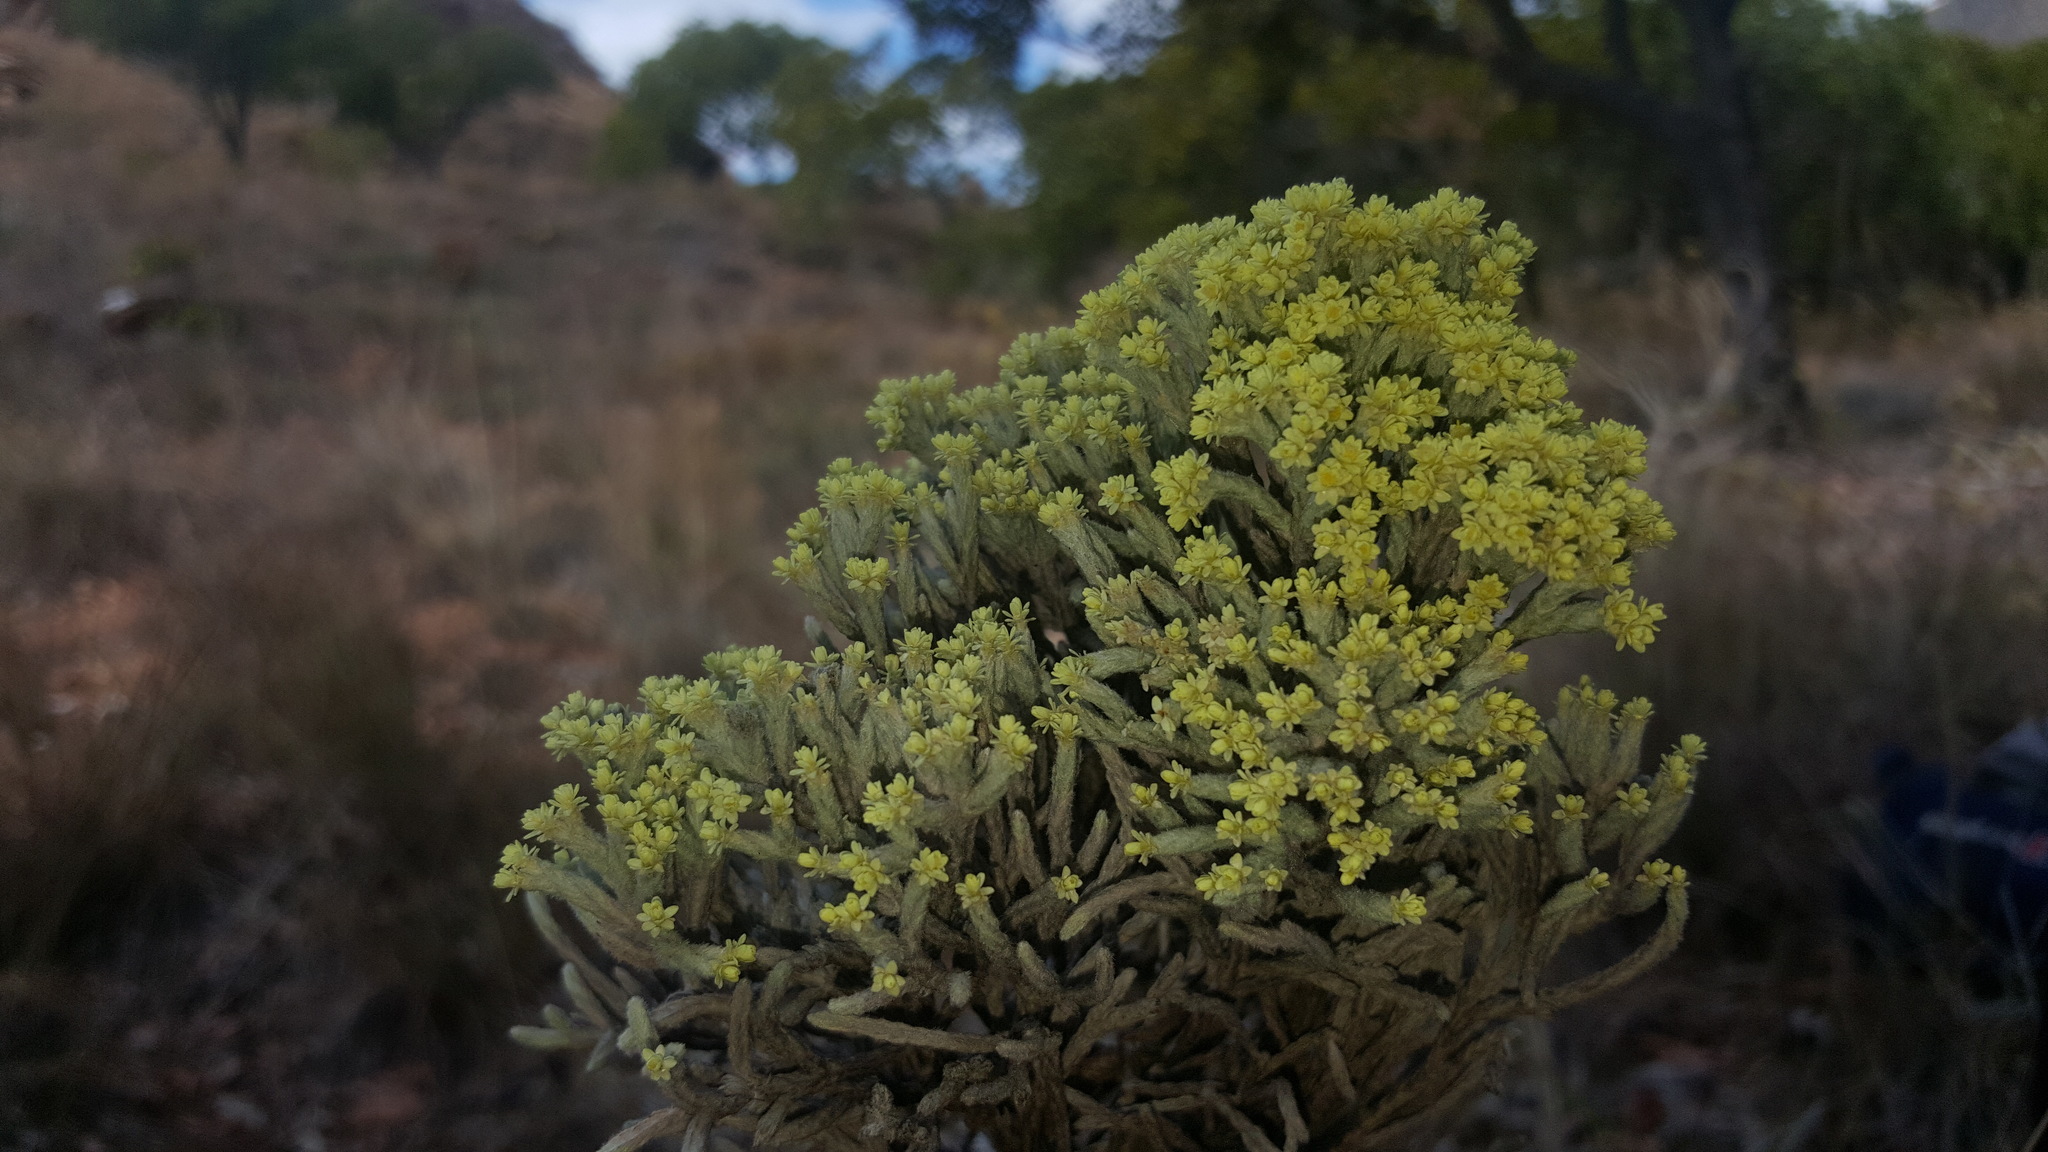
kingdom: Plantae
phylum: Tracheophyta
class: Magnoliopsida
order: Asterales
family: Asteraceae
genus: Helichrysum
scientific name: Helichrysum benthamii
